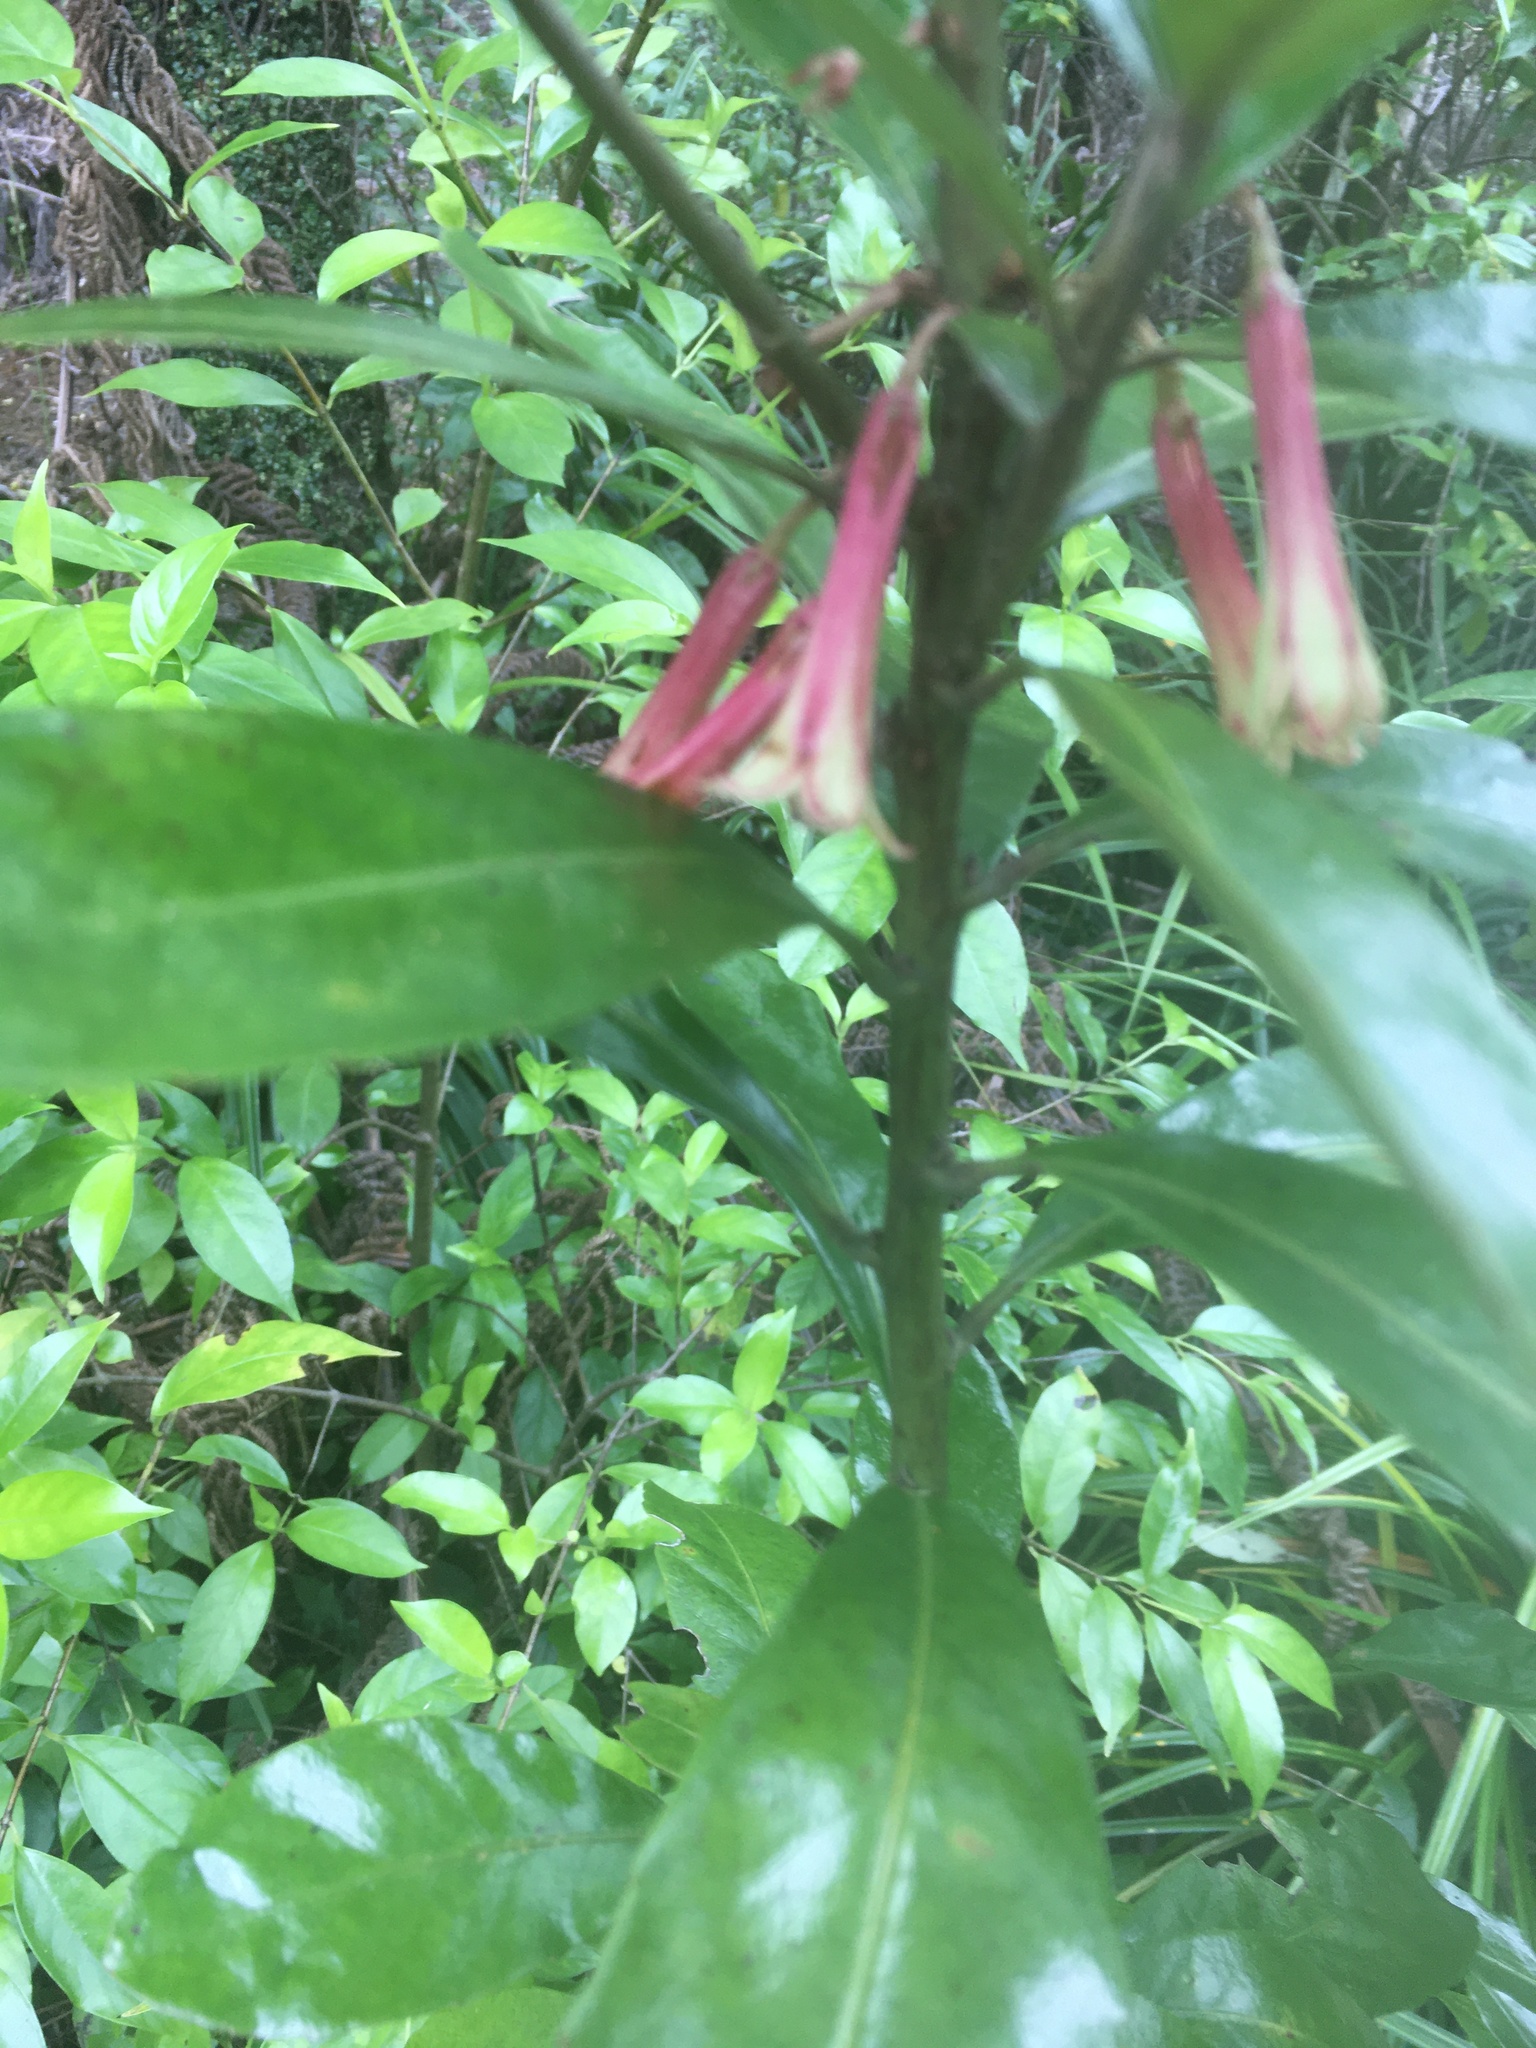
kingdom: Plantae
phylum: Tracheophyta
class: Magnoliopsida
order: Asterales
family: Alseuosmiaceae
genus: Alseuosmia
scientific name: Alseuosmia macrophylla
